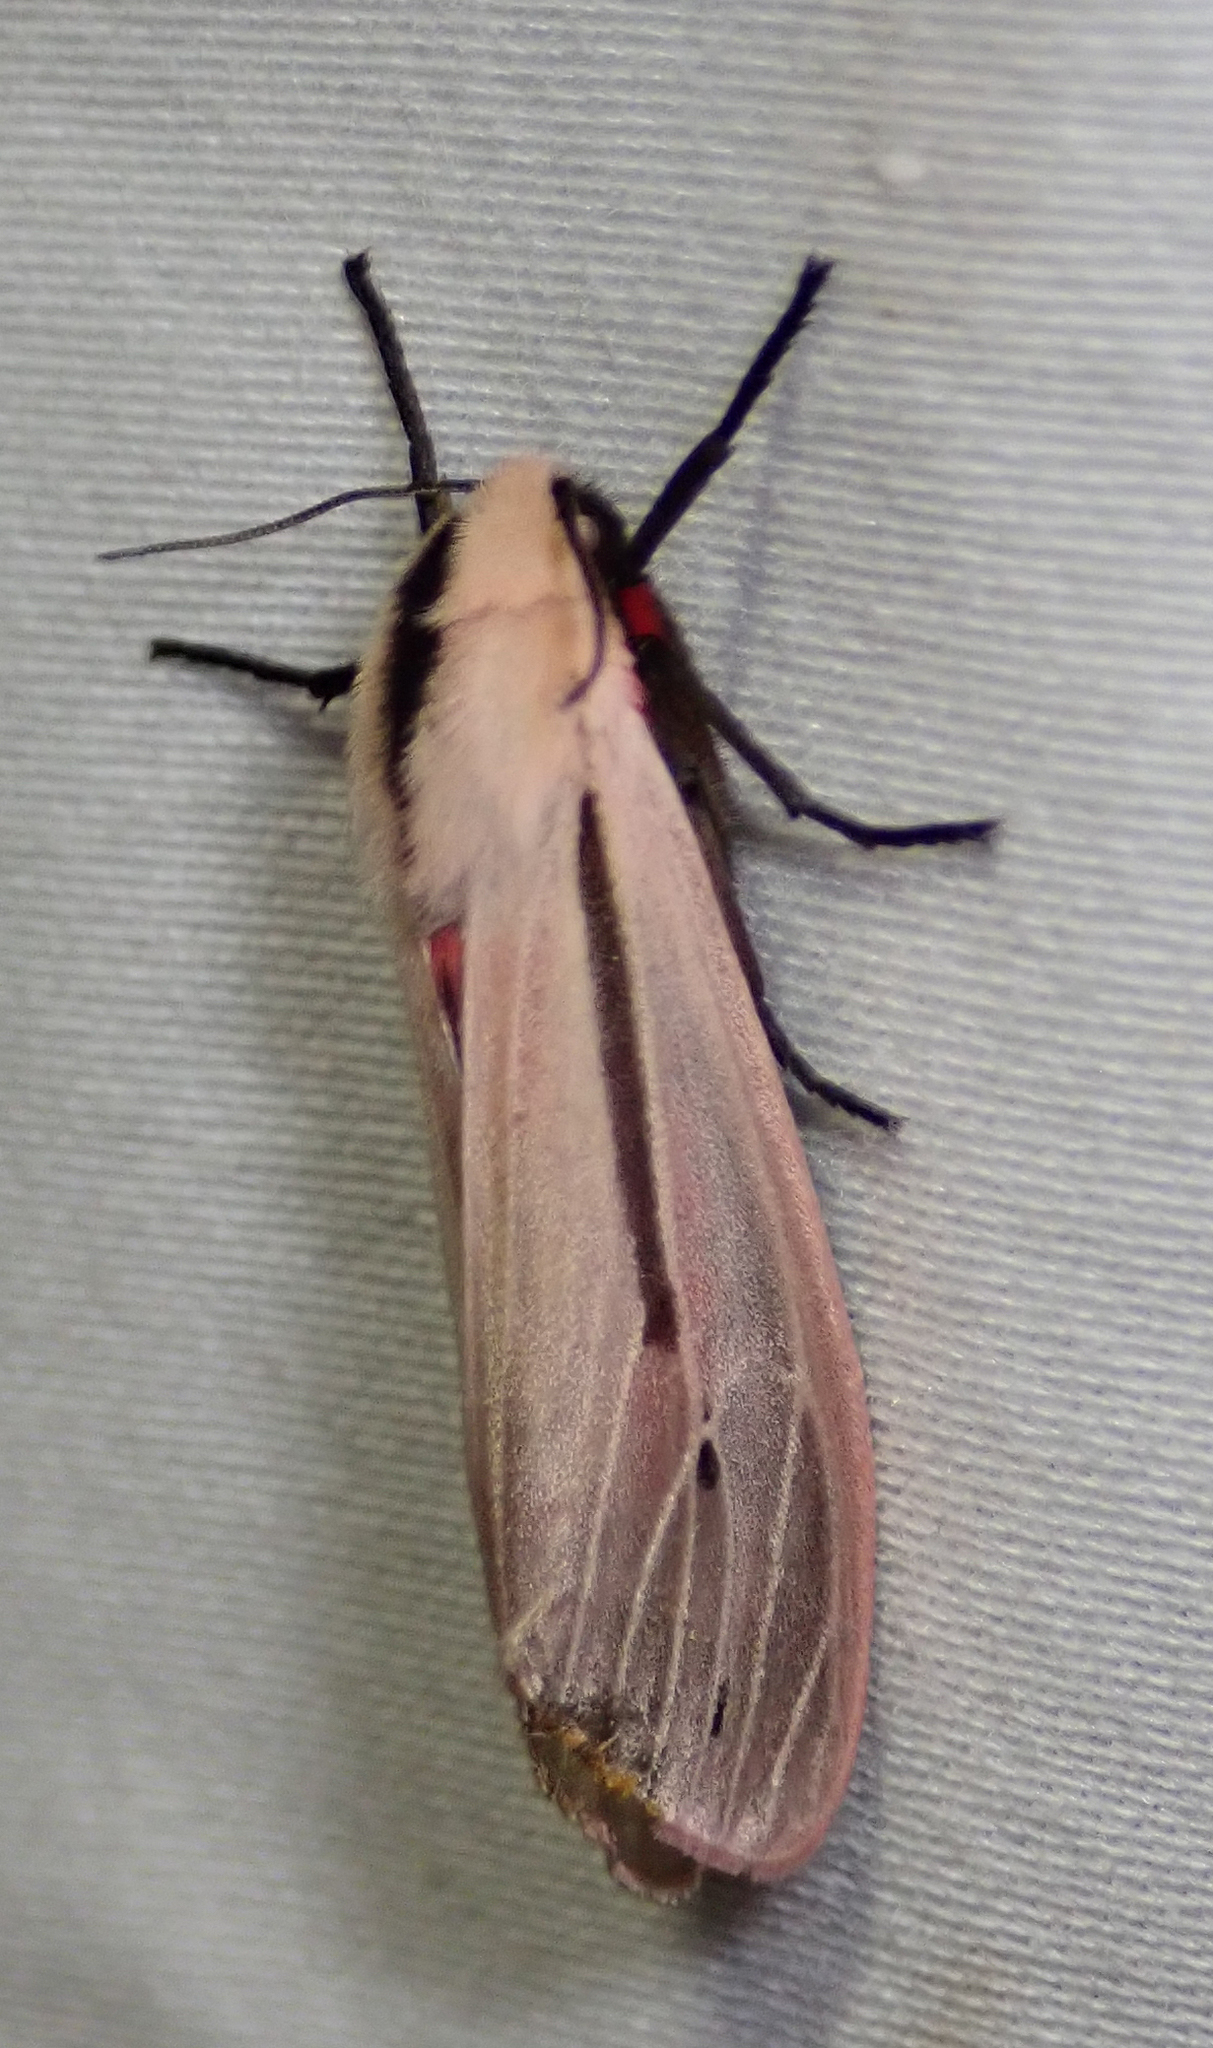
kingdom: Animalia
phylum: Arthropoda
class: Insecta
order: Lepidoptera
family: Erebidae
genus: Creatonotos
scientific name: Creatonotos leucanioides
